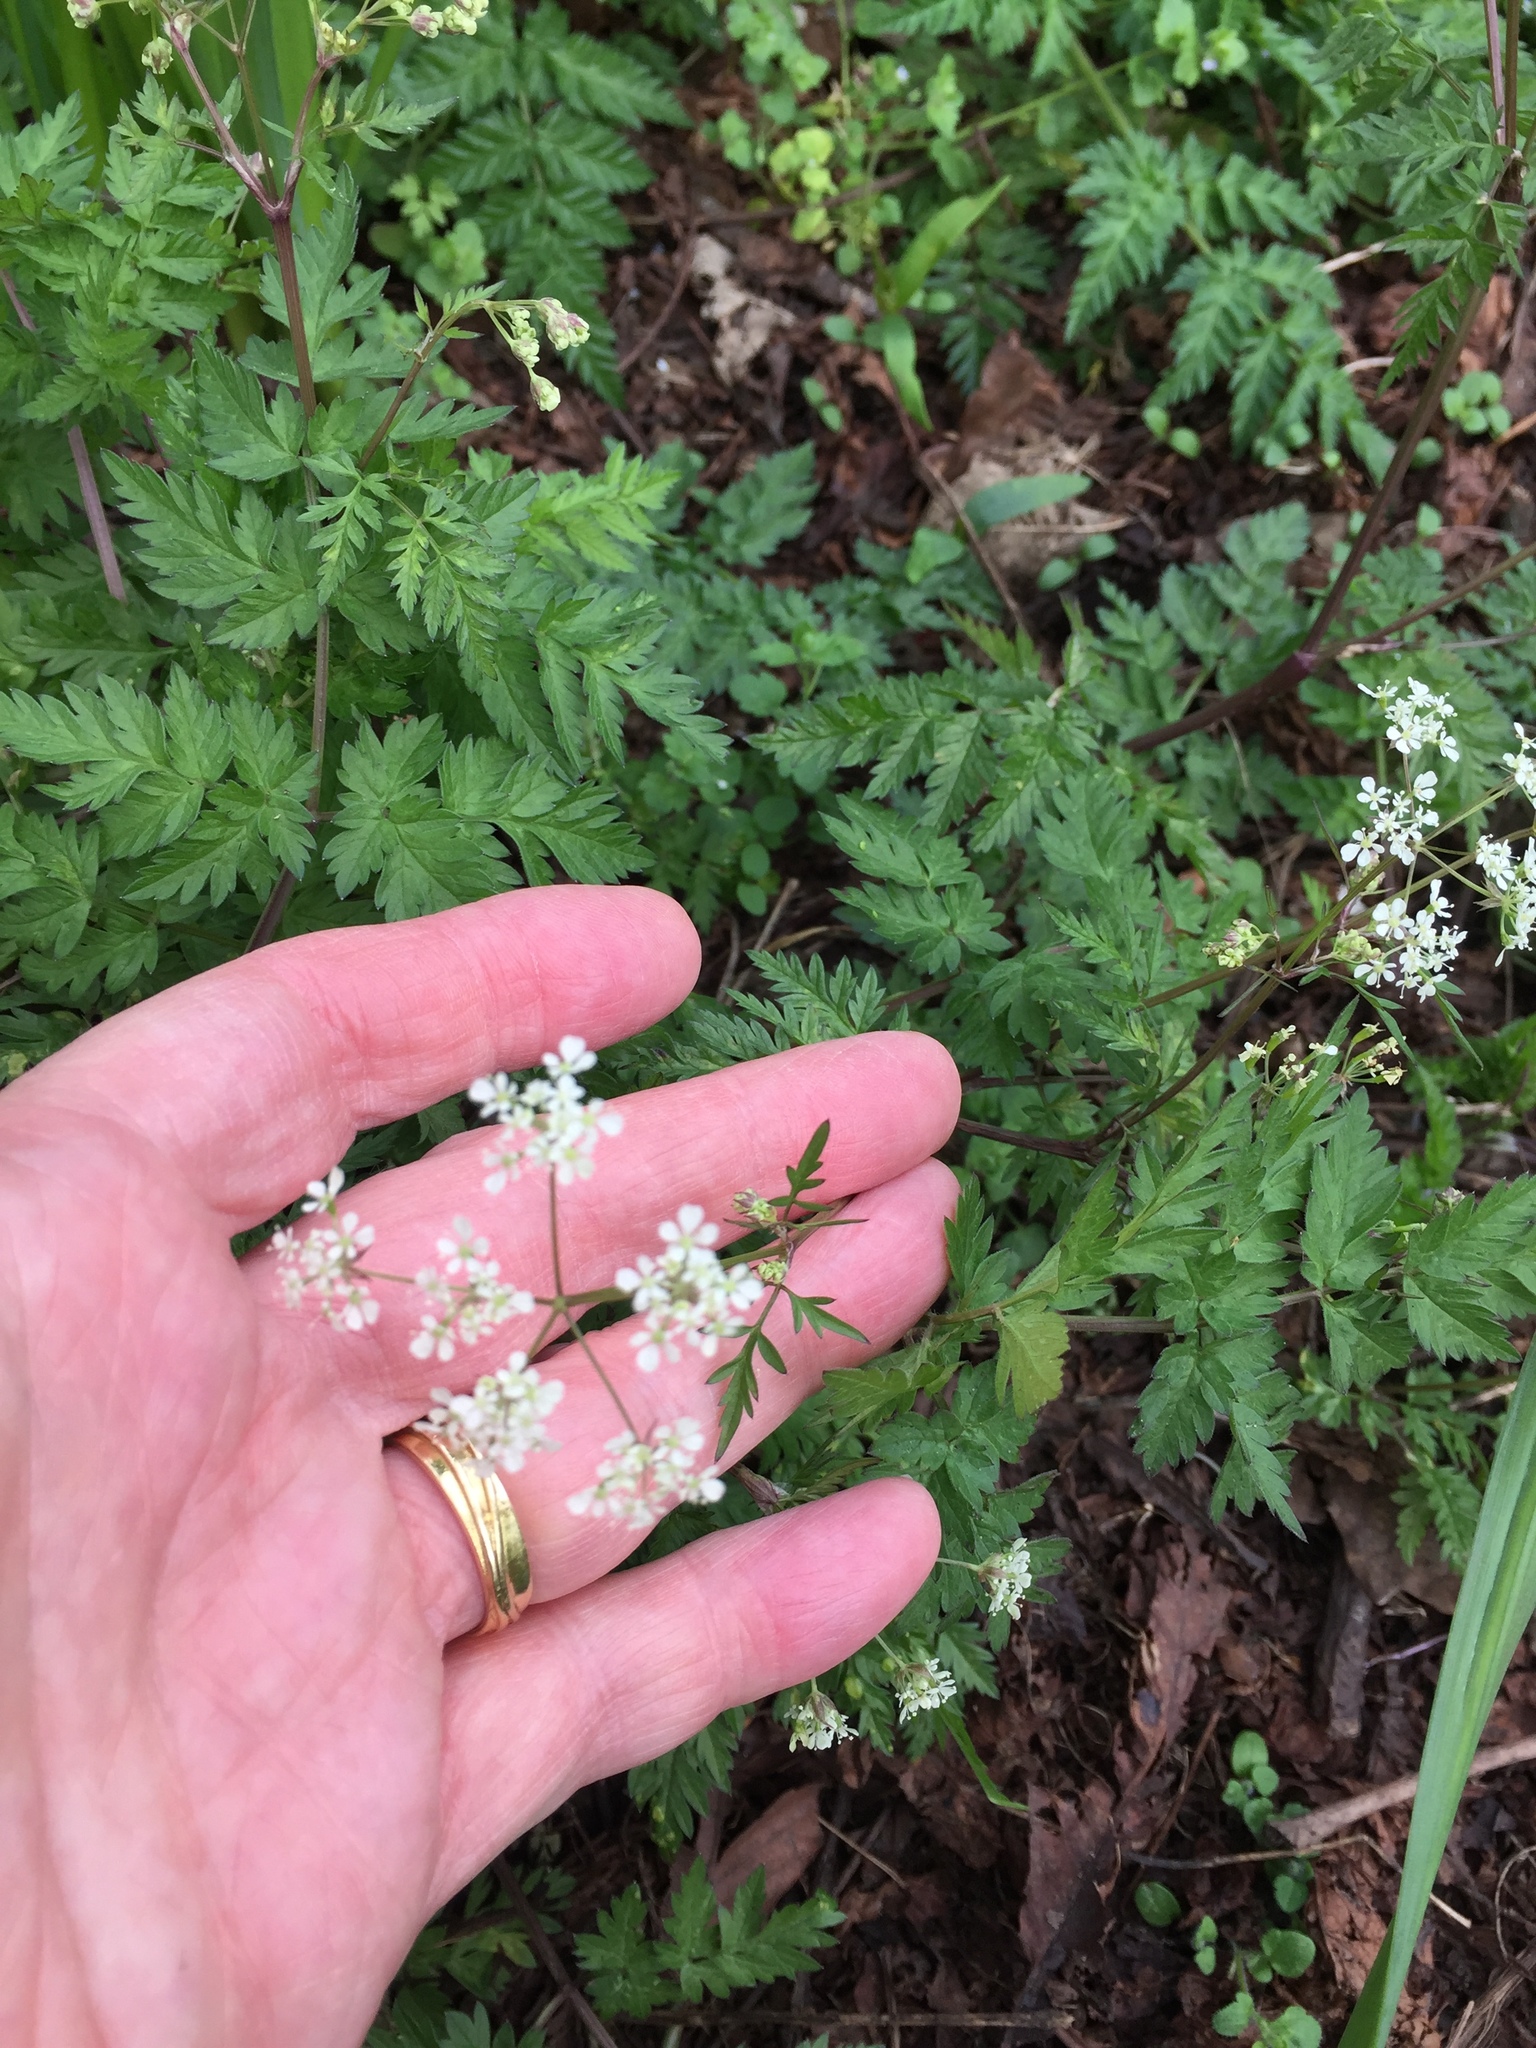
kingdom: Plantae
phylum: Tracheophyta
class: Magnoliopsida
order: Apiales
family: Apiaceae
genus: Anthriscus
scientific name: Anthriscus sylvestris
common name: Cow parsley
